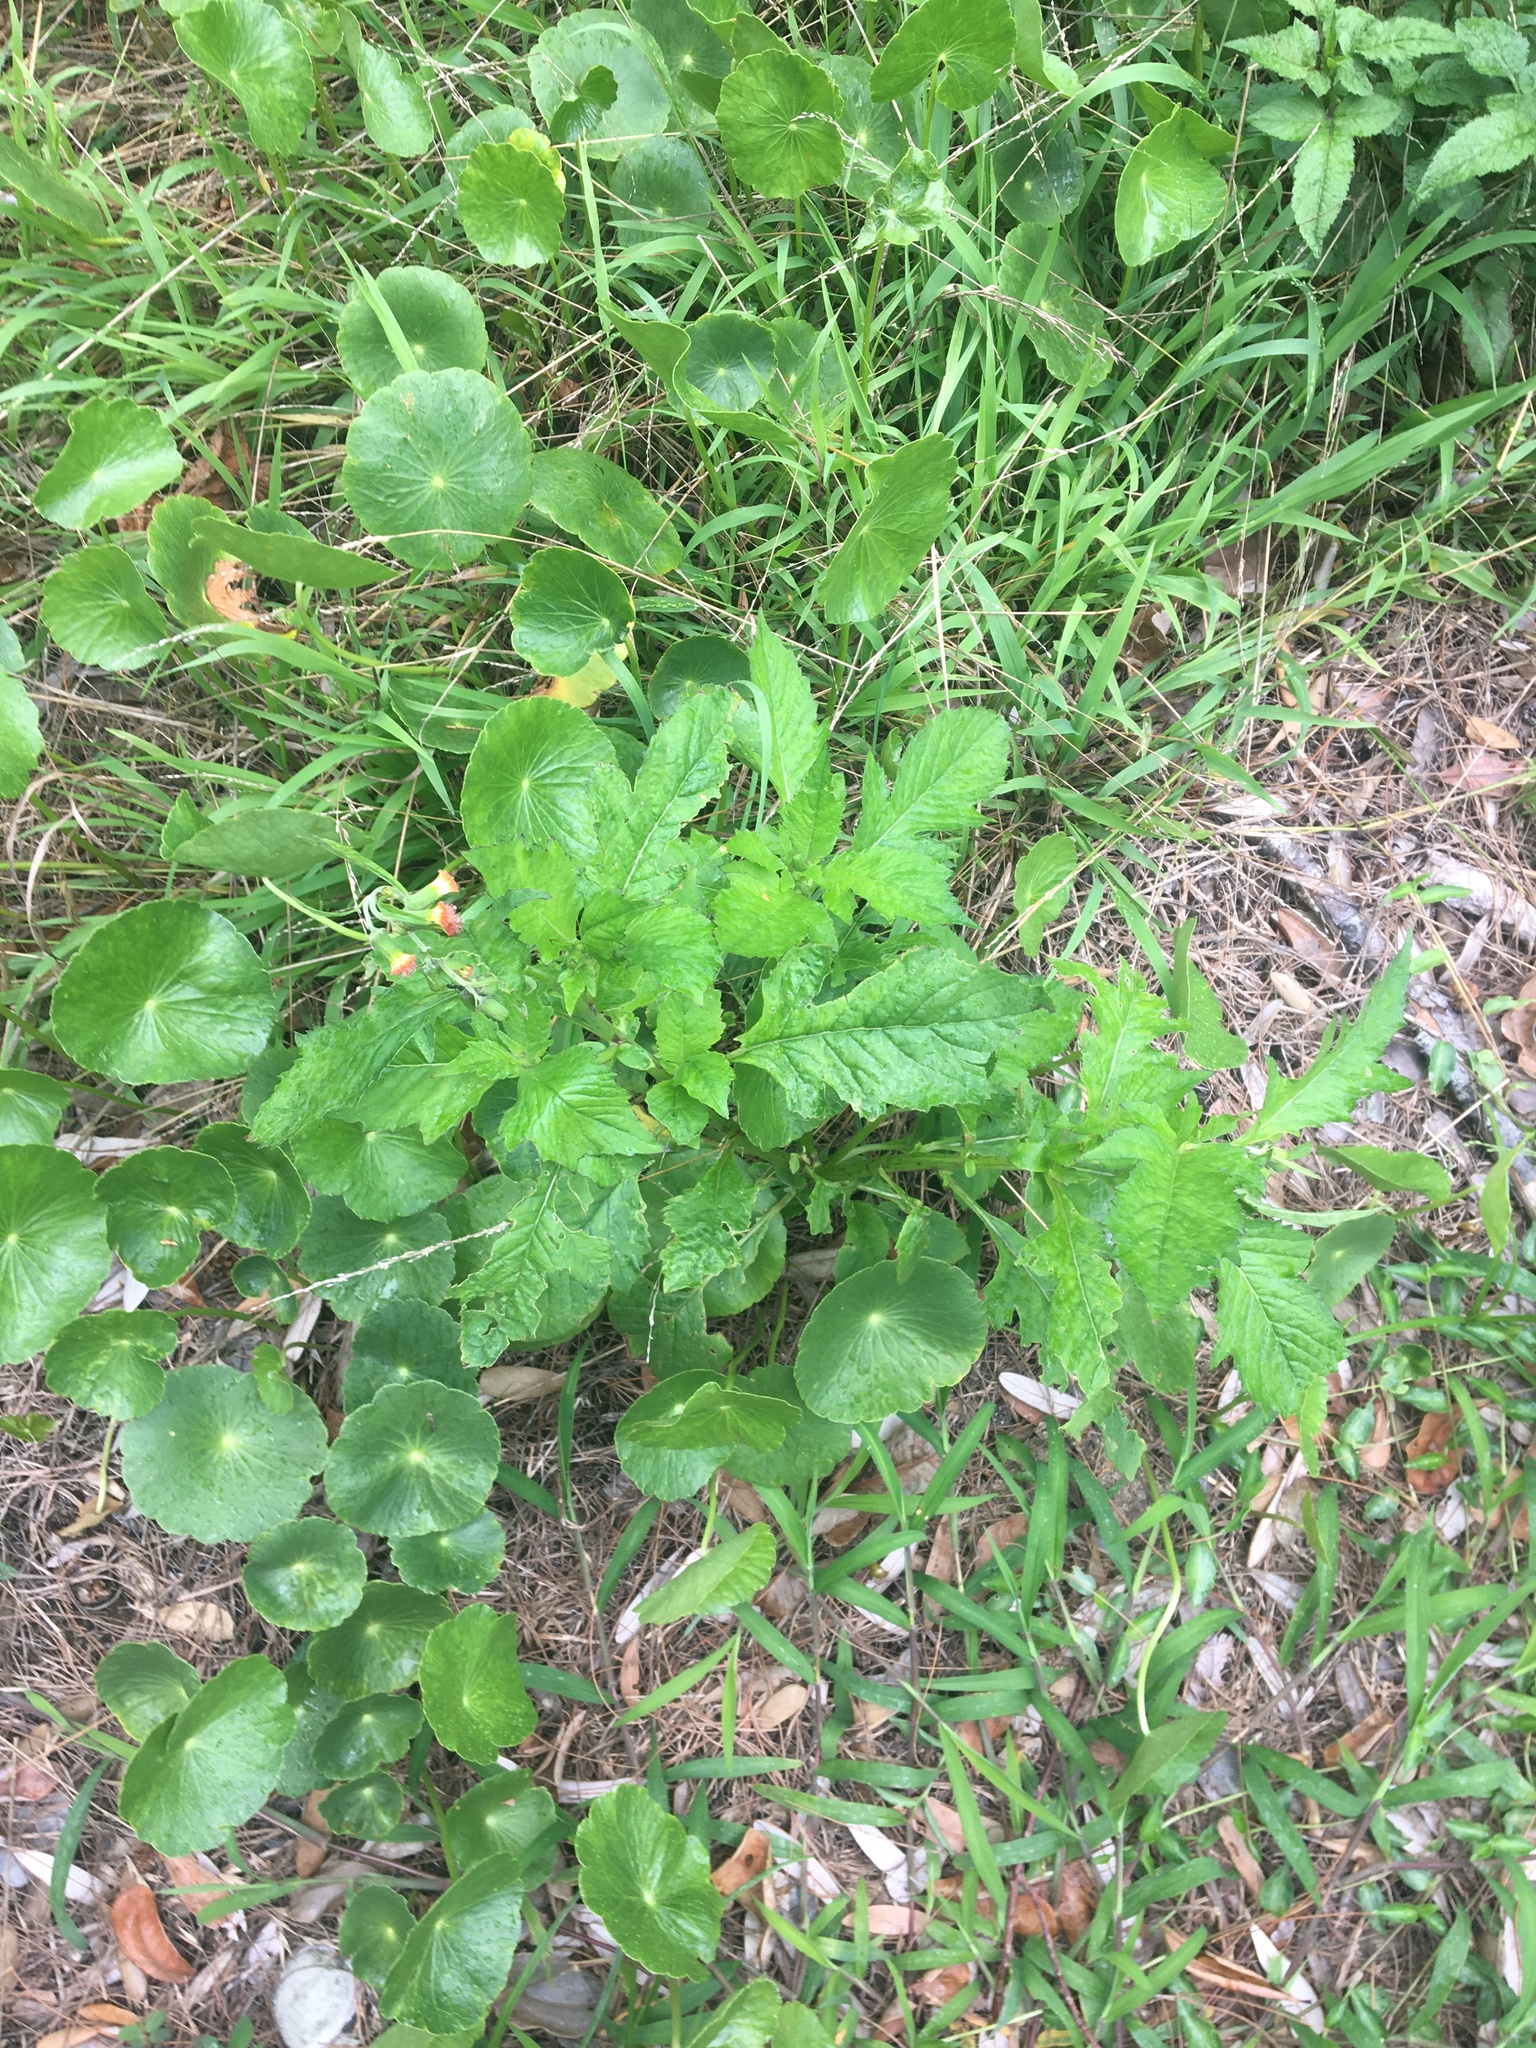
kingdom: Plantae
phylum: Tracheophyta
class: Magnoliopsida
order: Asterales
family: Asteraceae
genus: Crassocephalum
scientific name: Crassocephalum crepidioides
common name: Redflower ragleaf
